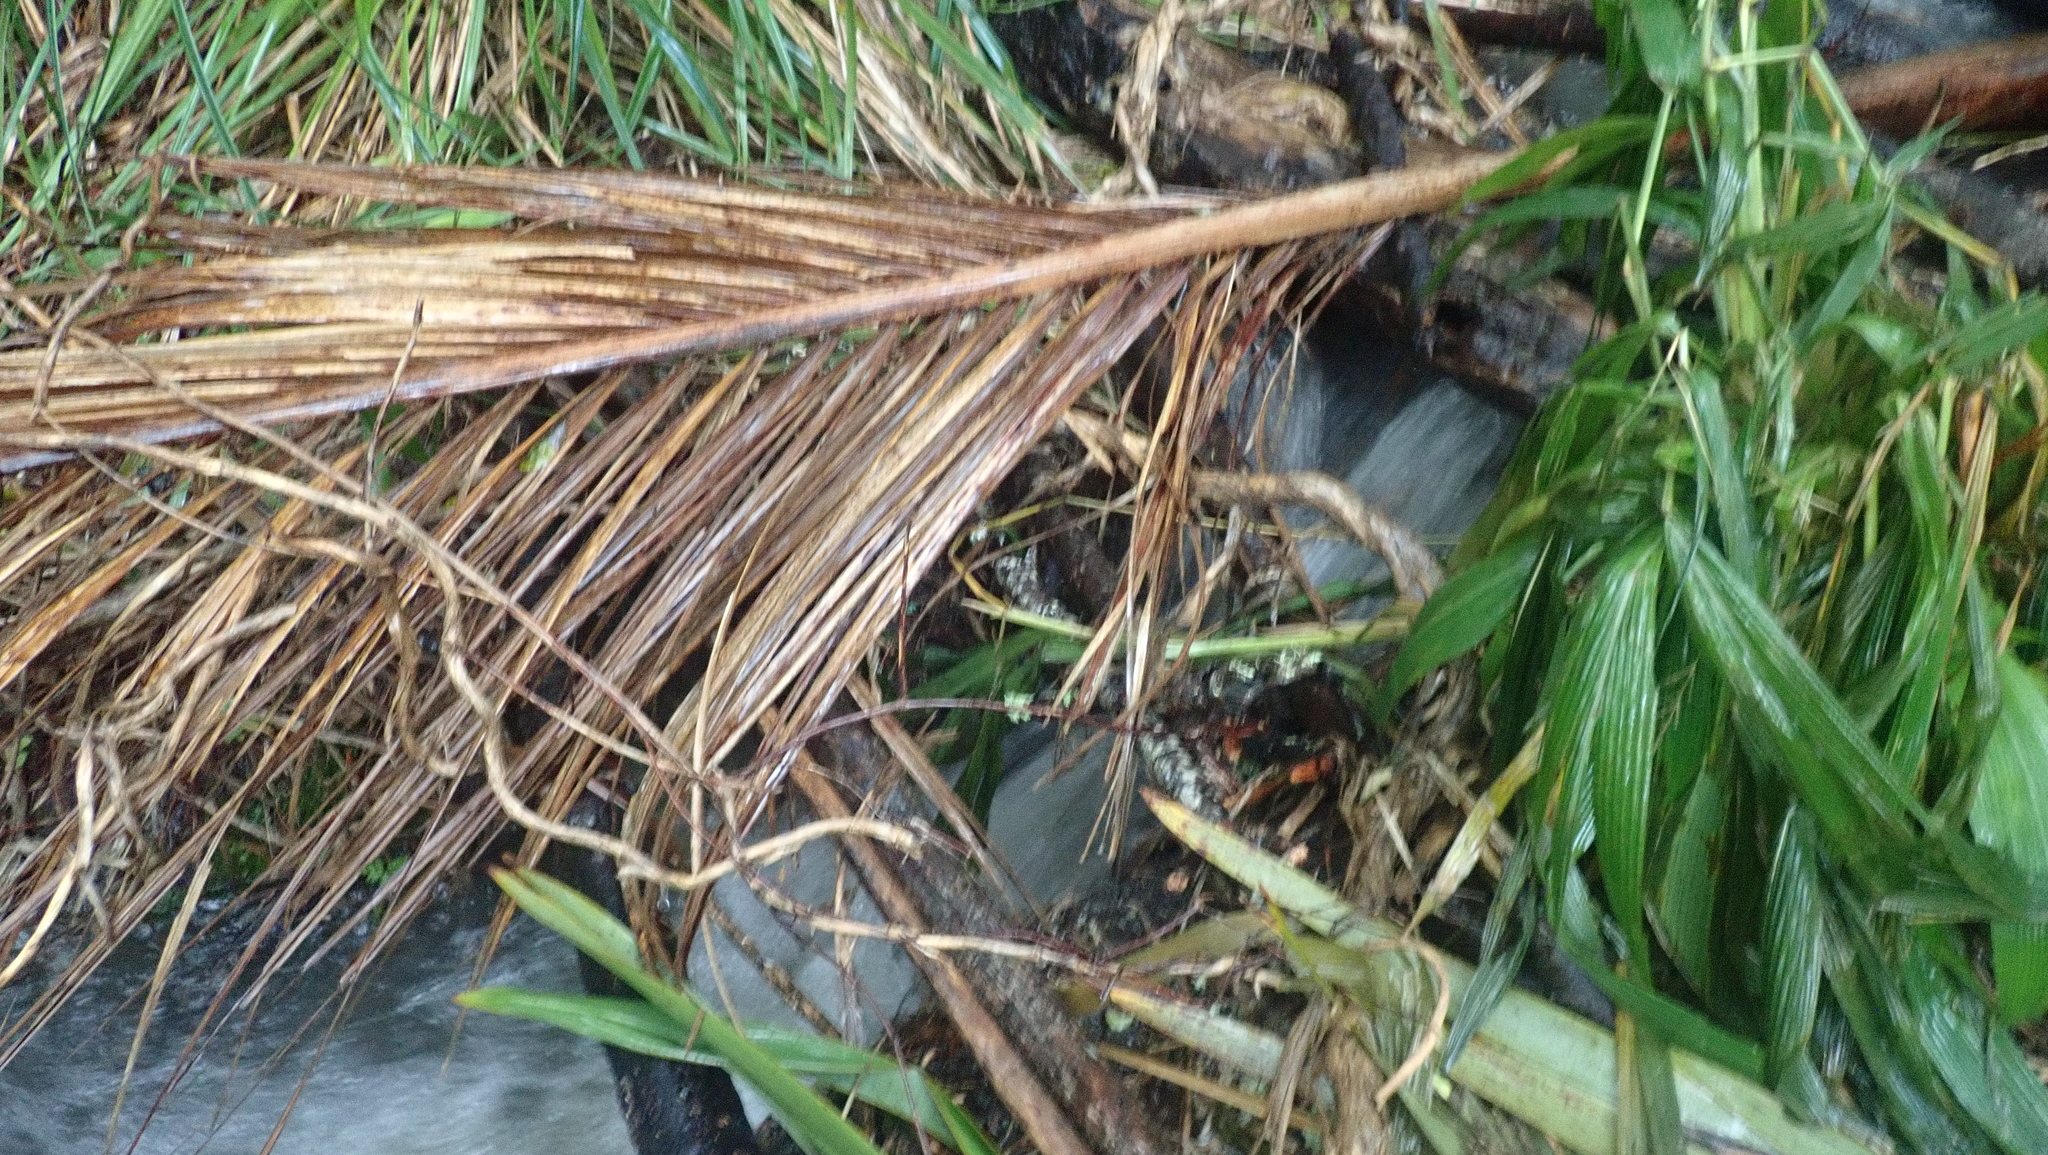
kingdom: Plantae
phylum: Tracheophyta
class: Liliopsida
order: Arecales
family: Arecaceae
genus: Rhopalostylis
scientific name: Rhopalostylis sapida
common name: Feather-duster palm
